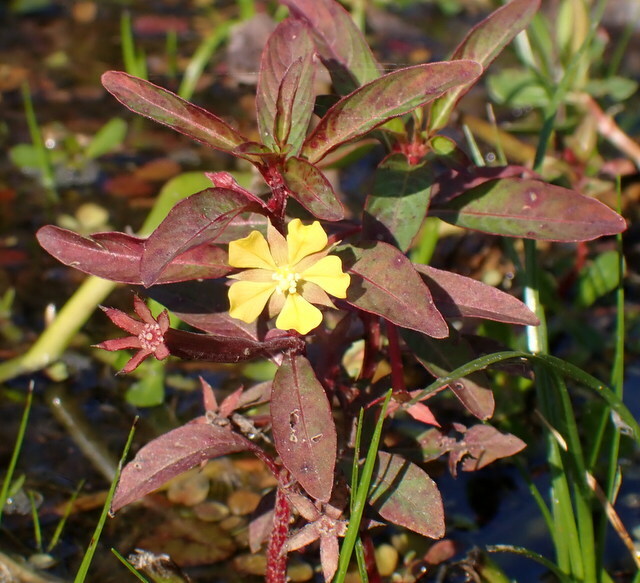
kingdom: Plantae
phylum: Tracheophyta
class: Magnoliopsida
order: Myrtales
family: Onagraceae
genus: Ludwigia
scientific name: Ludwigia leptocarpa
